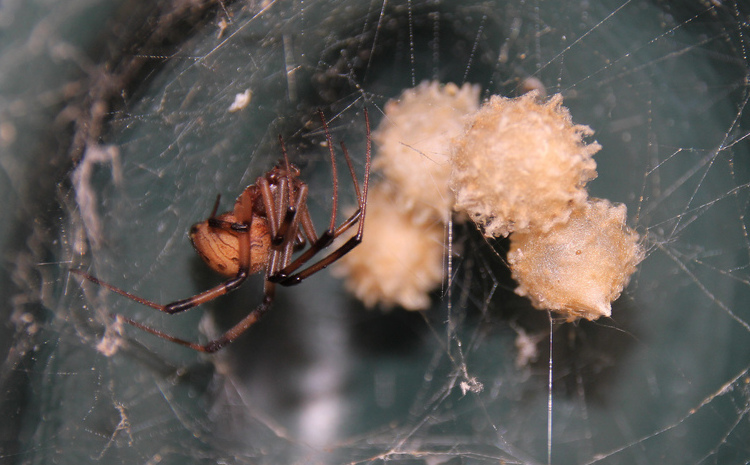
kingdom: Animalia
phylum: Arthropoda
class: Arachnida
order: Araneae
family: Theridiidae
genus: Latrodectus
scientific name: Latrodectus geometricus
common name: Brown widow spider
